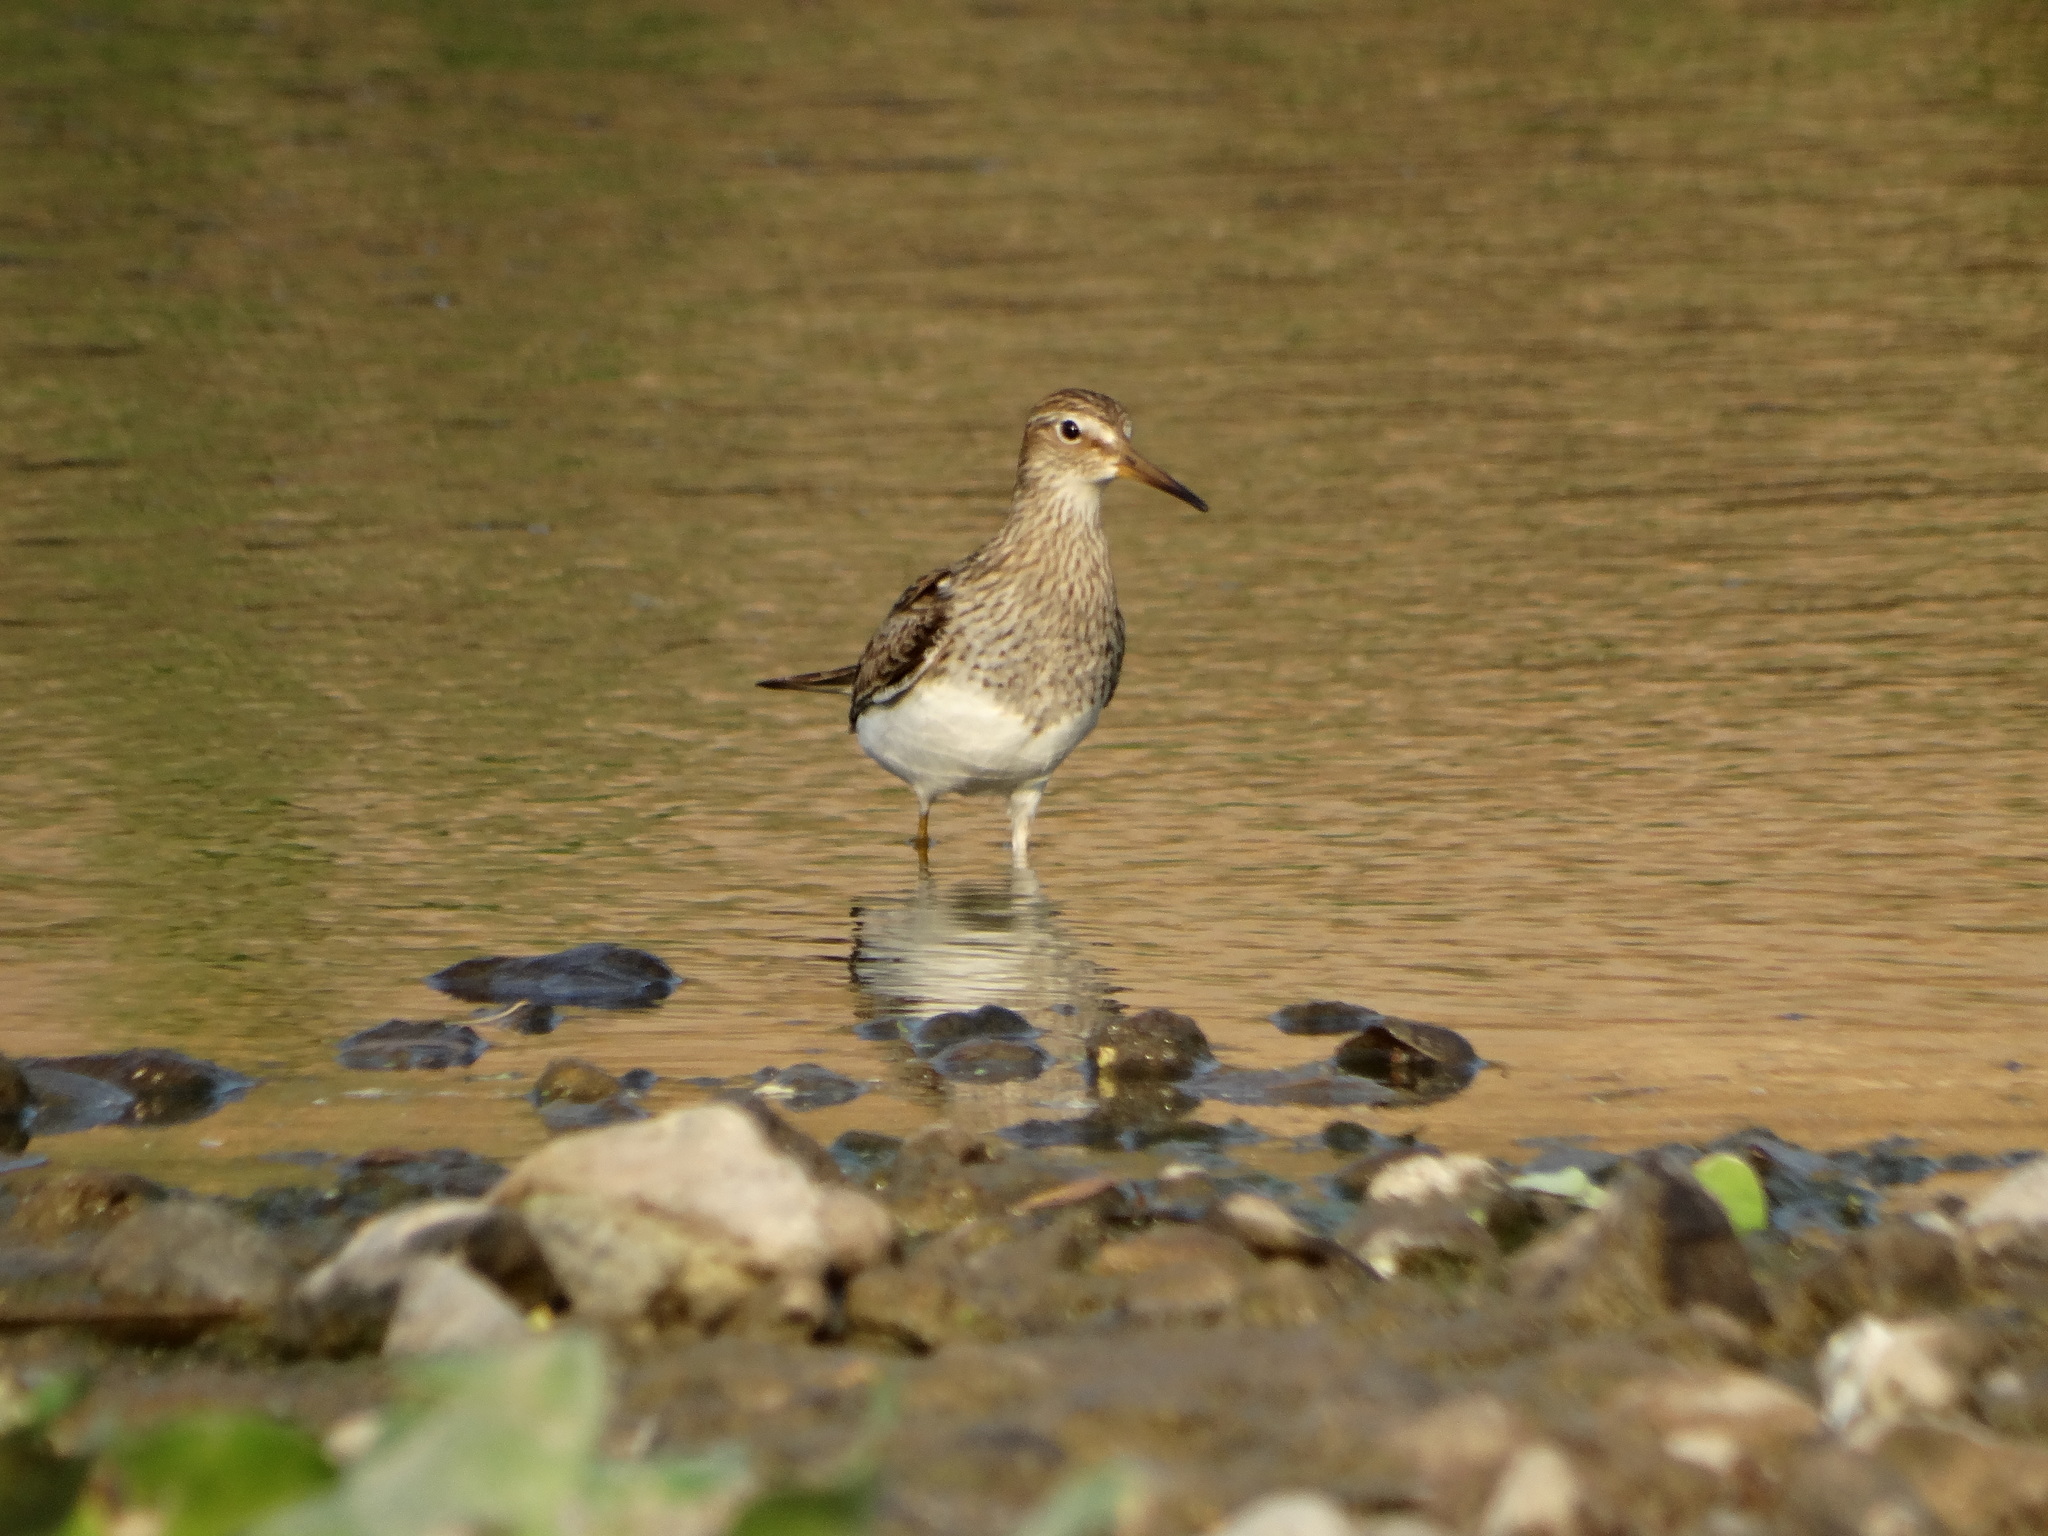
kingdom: Animalia
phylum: Chordata
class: Aves
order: Charadriiformes
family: Scolopacidae
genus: Calidris
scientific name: Calidris melanotos
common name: Pectoral sandpiper
